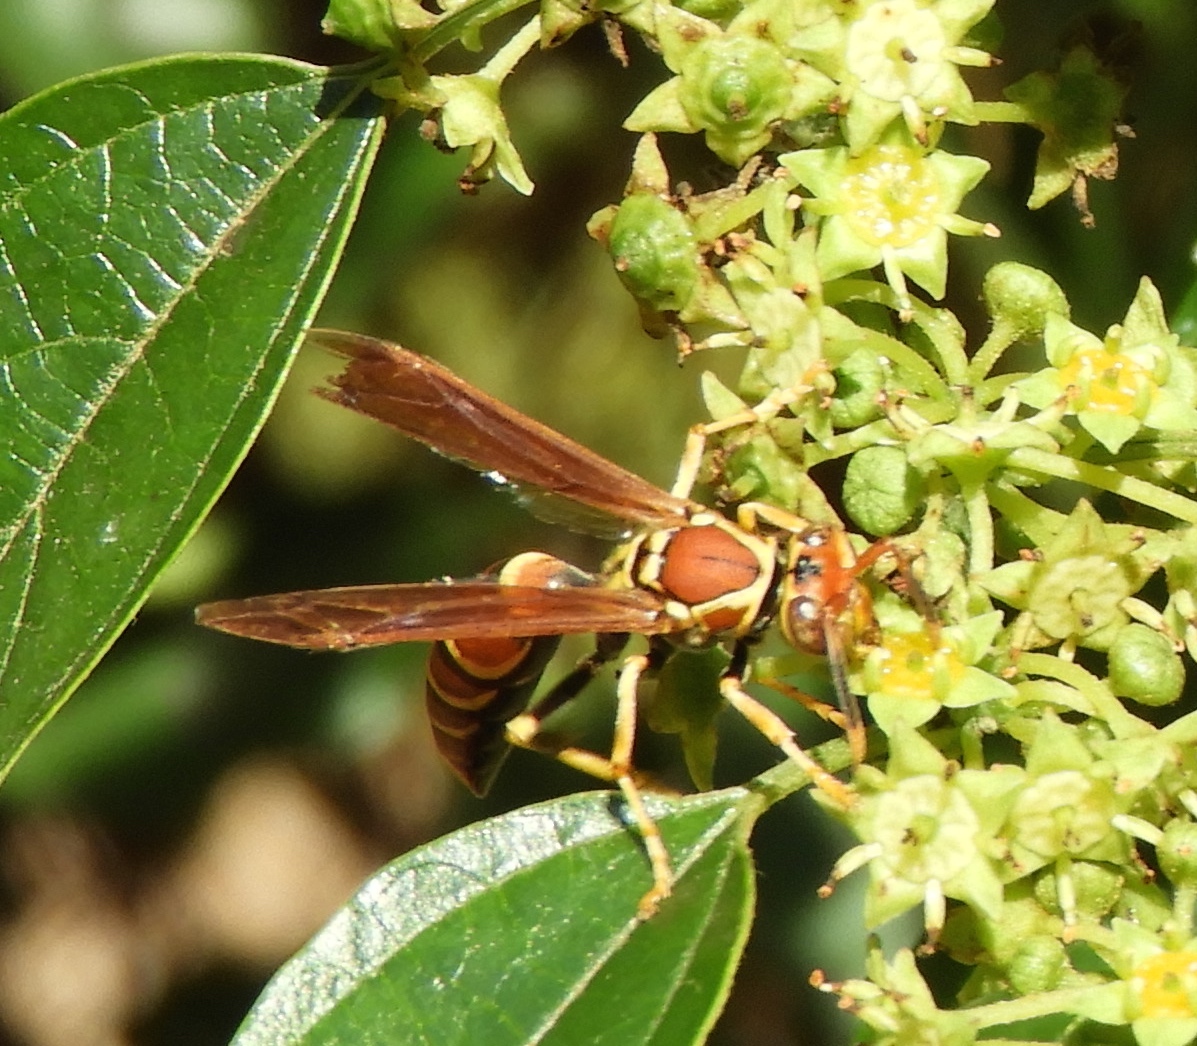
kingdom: Animalia
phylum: Arthropoda
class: Insecta
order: Hymenoptera
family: Pompilidae
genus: Aphanilopterus
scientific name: Aphanilopterus
